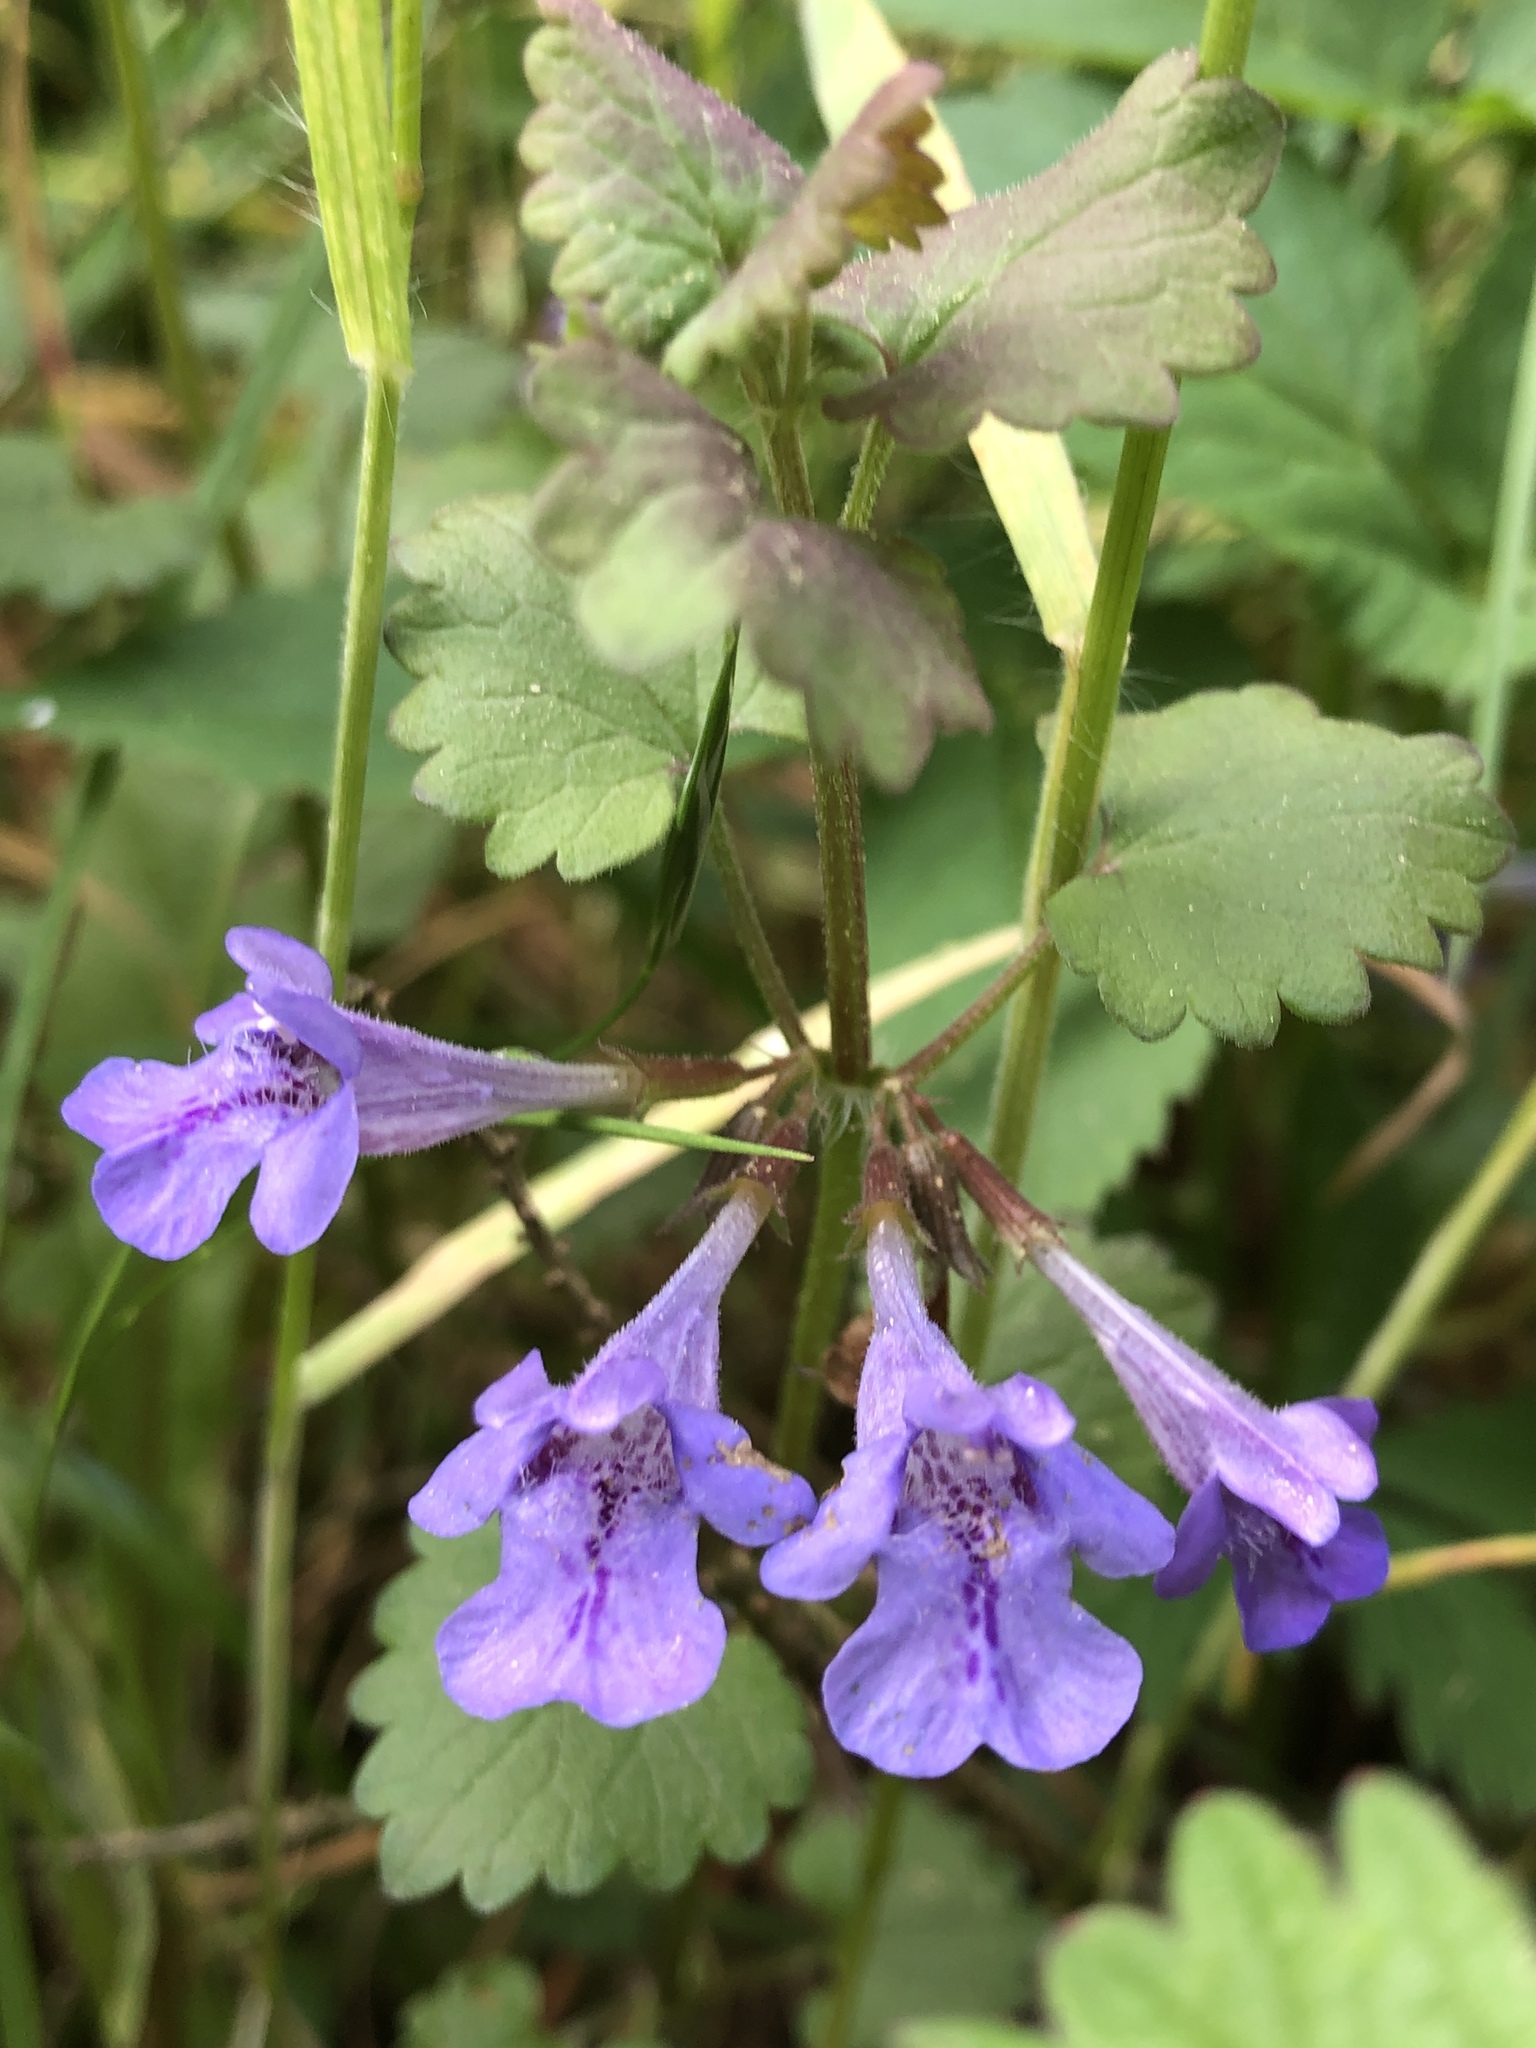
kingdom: Plantae
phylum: Tracheophyta
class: Magnoliopsida
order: Lamiales
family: Lamiaceae
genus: Glechoma
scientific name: Glechoma hederacea
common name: Ground ivy
